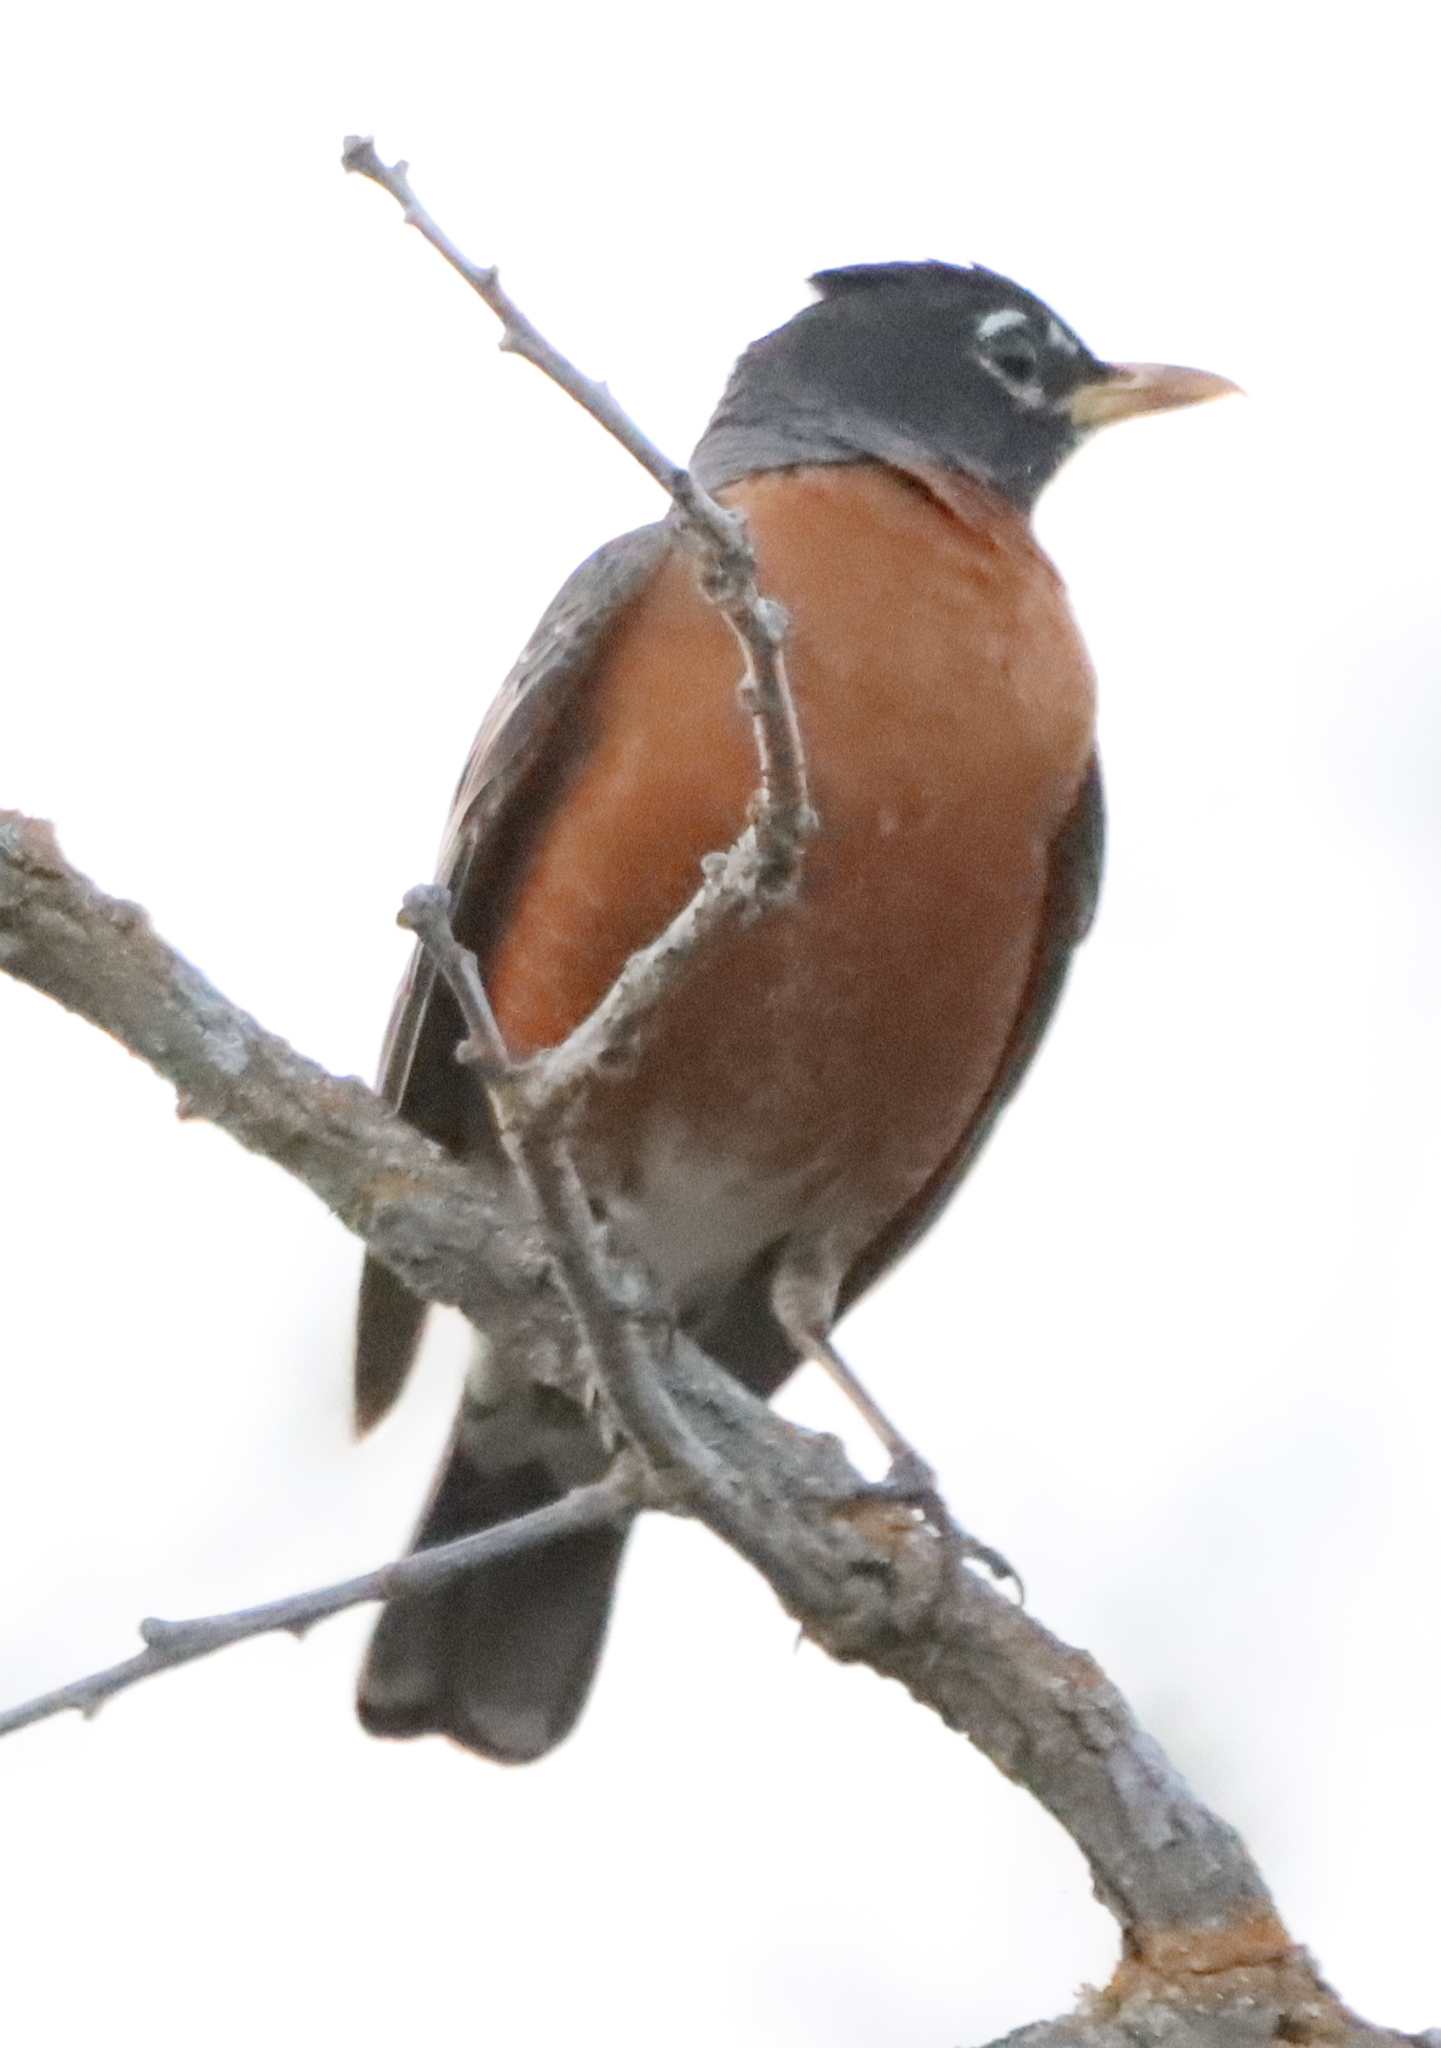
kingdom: Animalia
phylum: Chordata
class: Aves
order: Passeriformes
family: Turdidae
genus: Turdus
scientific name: Turdus migratorius
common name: American robin
